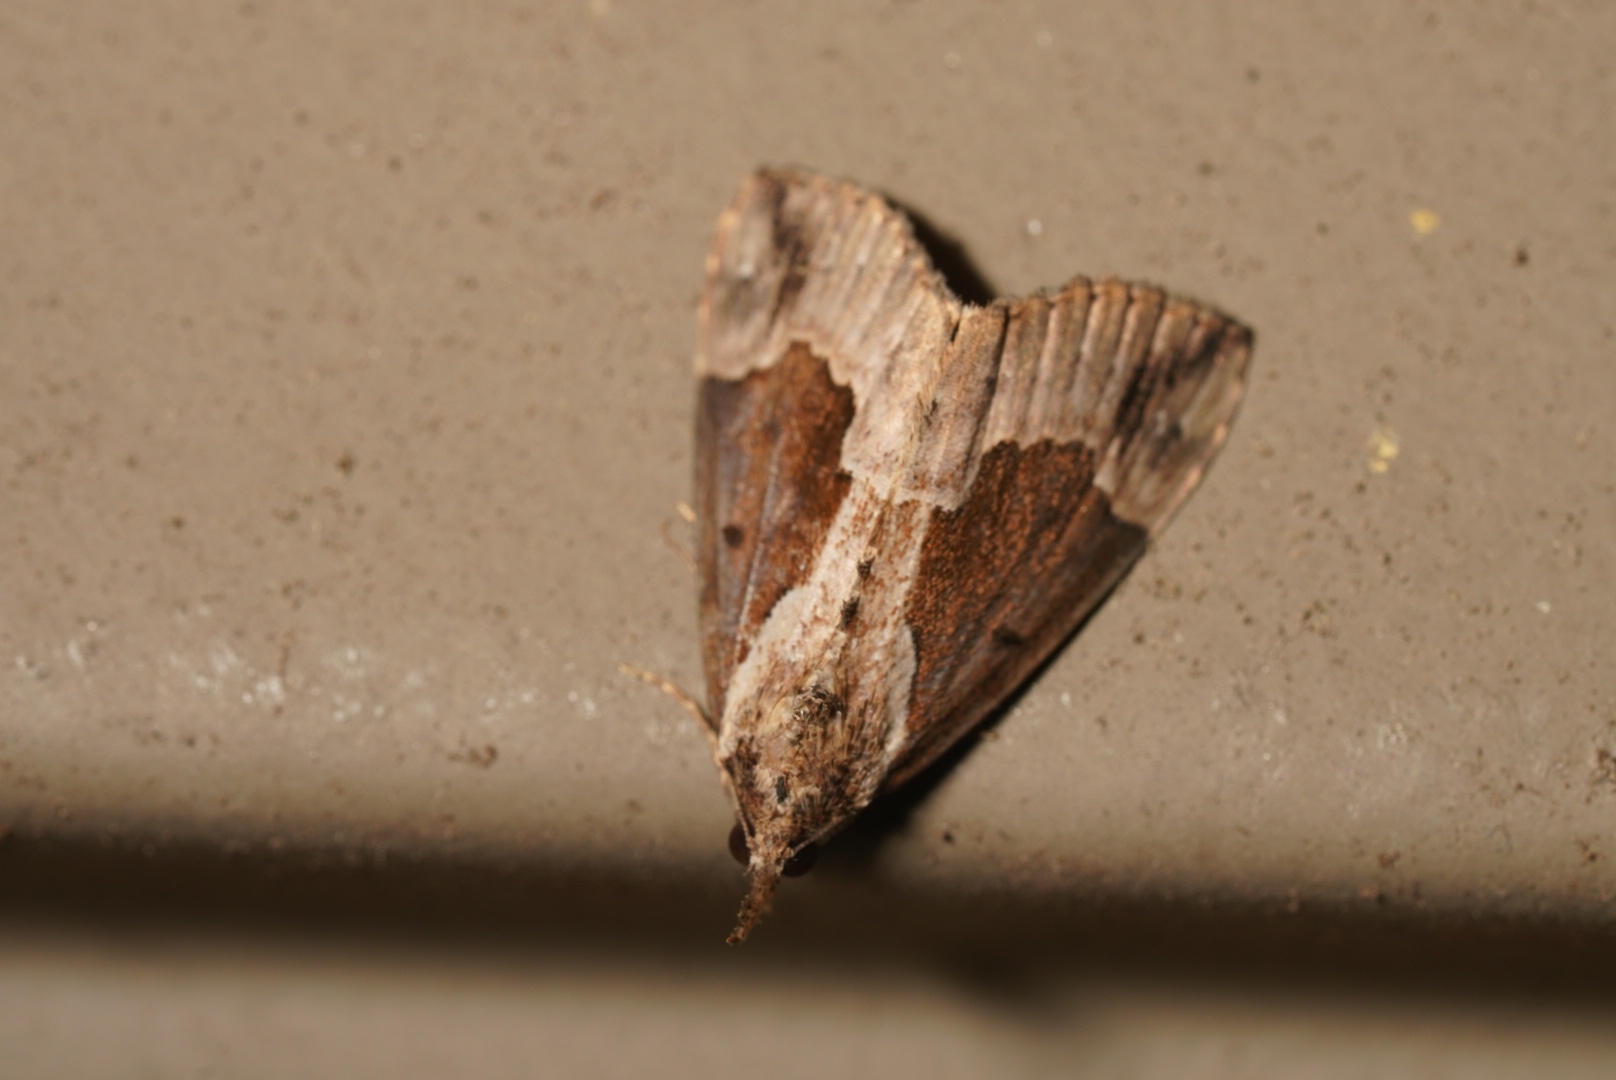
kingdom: Animalia
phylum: Arthropoda
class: Insecta
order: Lepidoptera
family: Erebidae
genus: Hypena
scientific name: Hypena baltimoralis
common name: Baltimore snout
